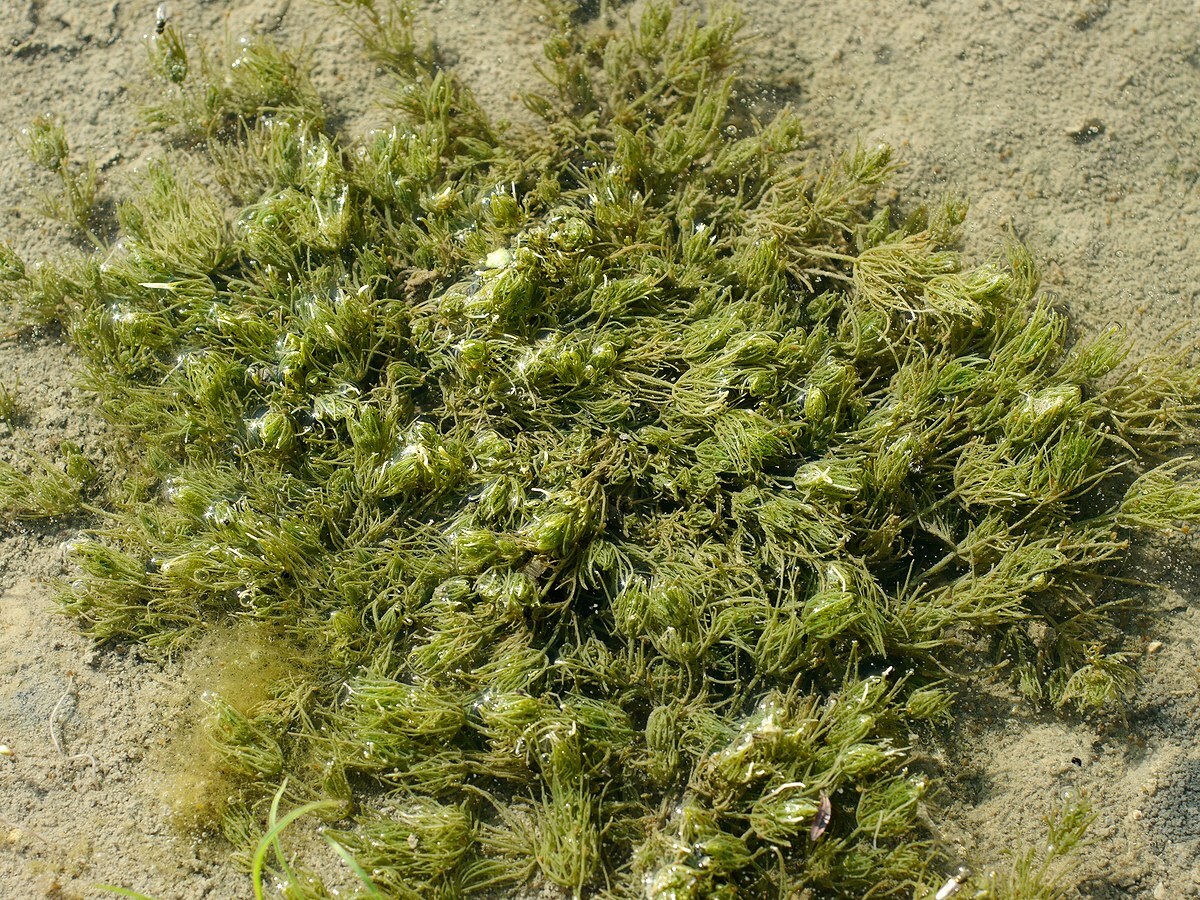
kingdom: Plantae
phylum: Charophyta
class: Charophyceae
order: Charales
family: Characeae
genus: Chara
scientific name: Chara vulgaris
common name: Common stonewort
